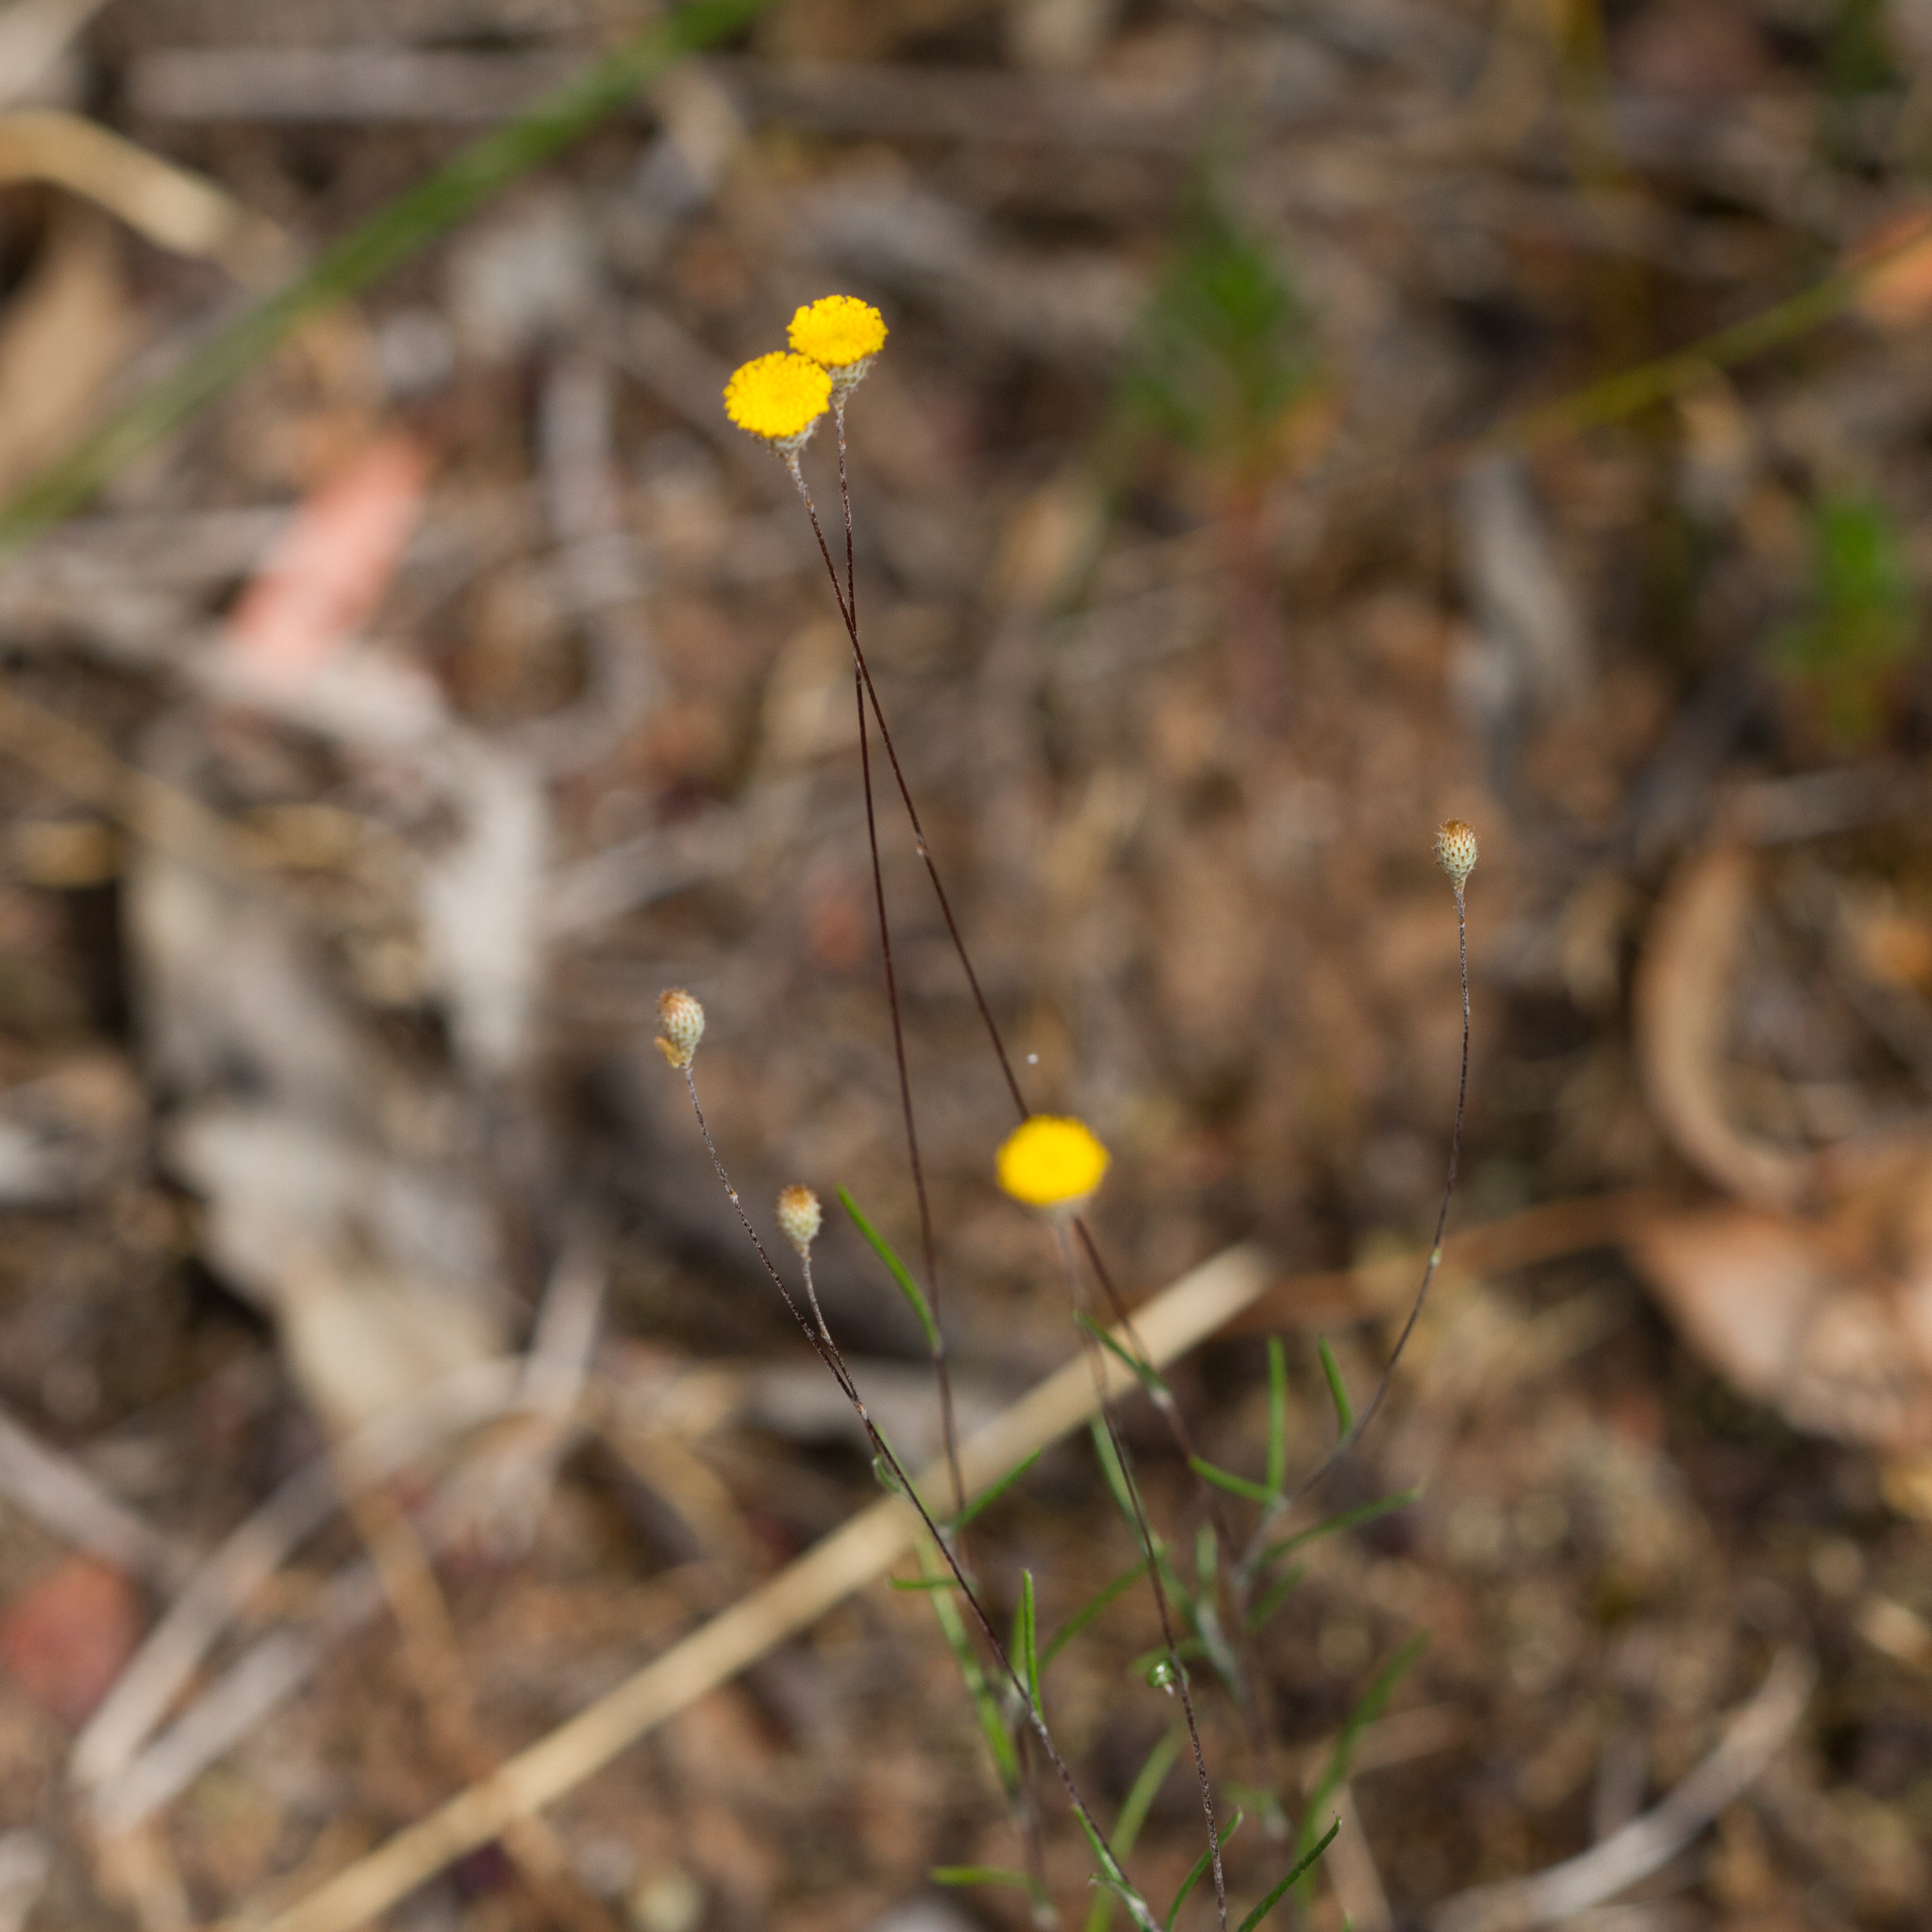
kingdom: Plantae
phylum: Tracheophyta
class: Magnoliopsida
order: Asterales
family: Asteraceae
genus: Leptorhynchos
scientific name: Leptorhynchos tenuifolius
